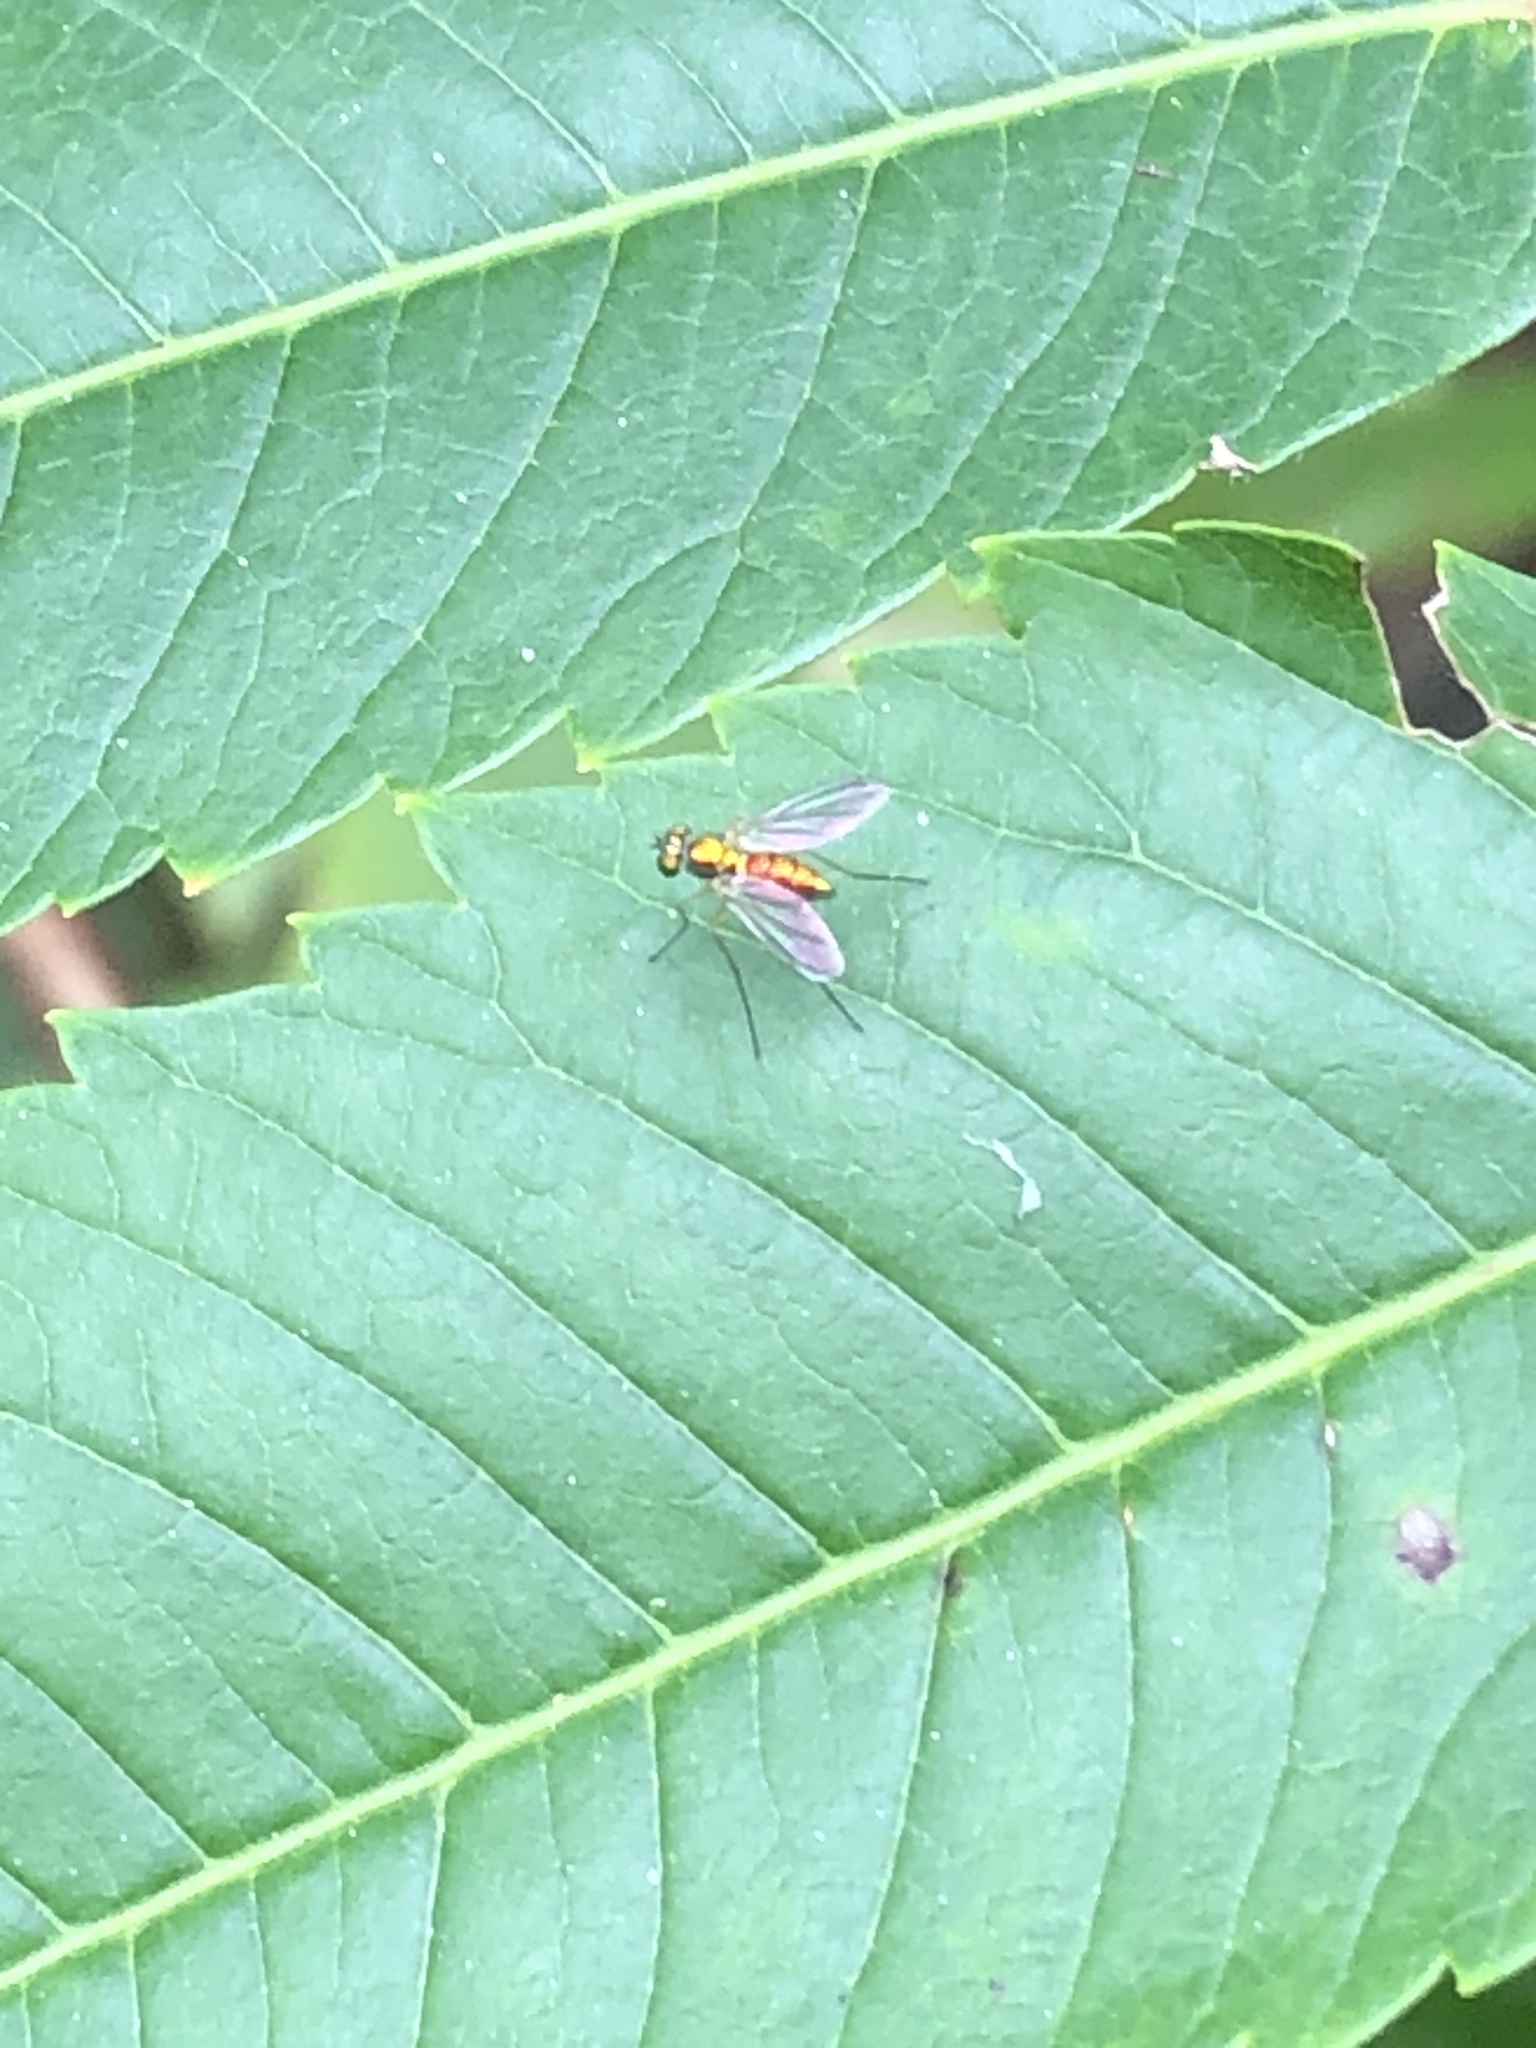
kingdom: Animalia
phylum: Arthropoda
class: Insecta
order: Diptera
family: Dolichopodidae
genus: Amblypsilopus
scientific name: Amblypsilopus scintillans
